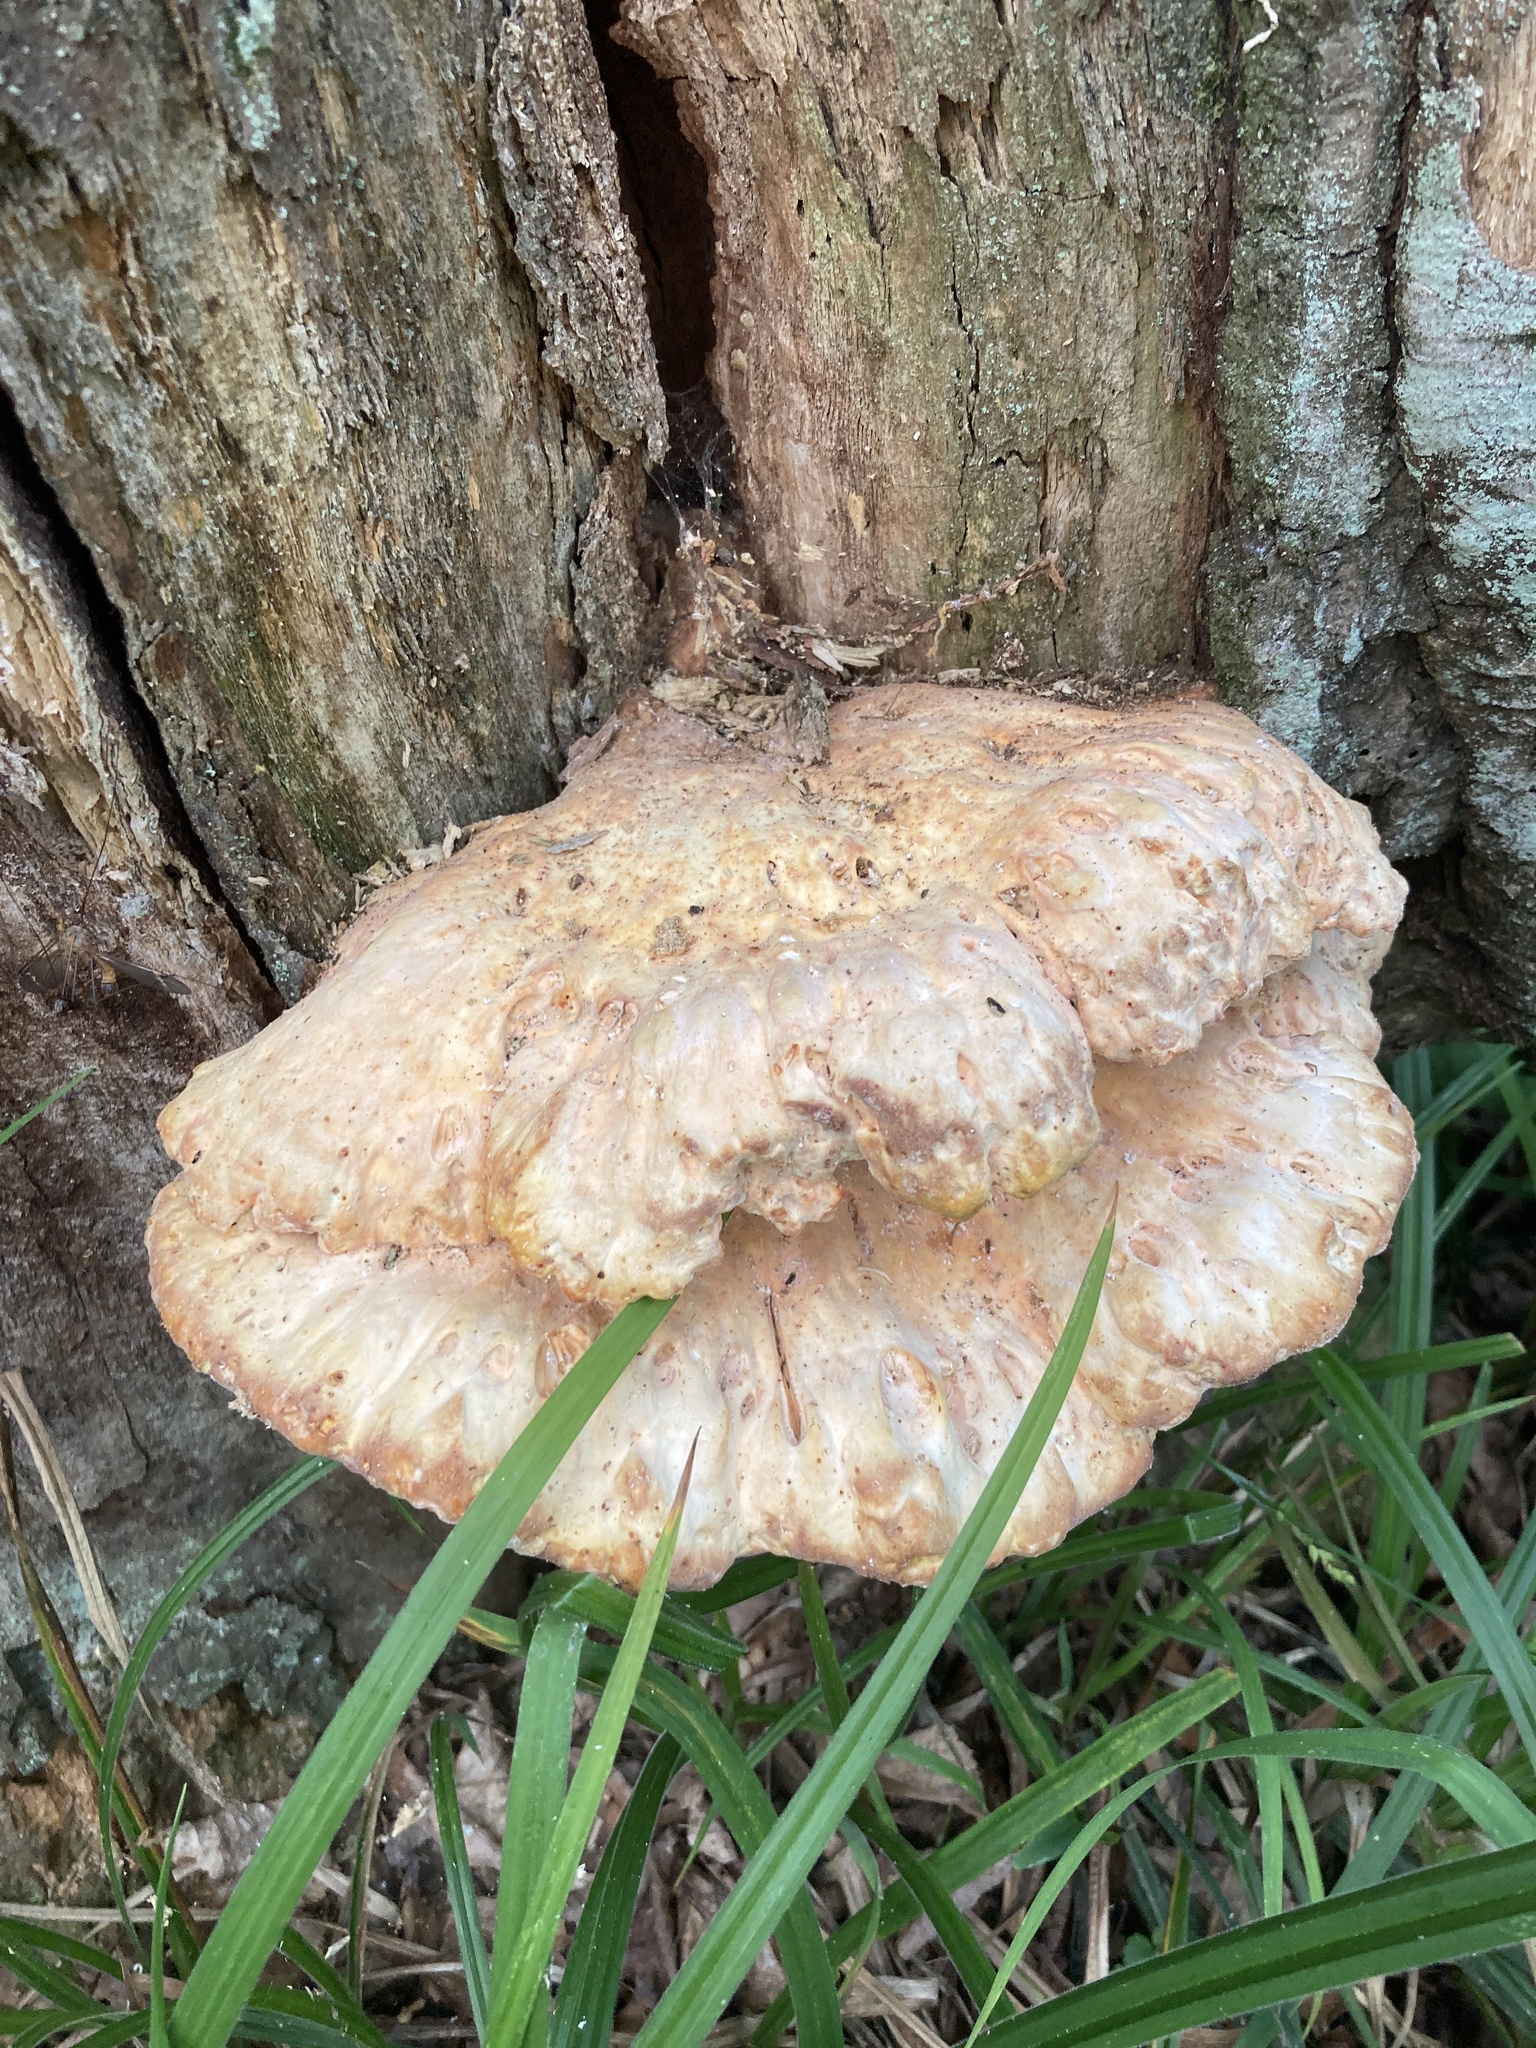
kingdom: Fungi
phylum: Basidiomycota
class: Agaricomycetes
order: Polyporales
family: Laetiporaceae
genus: Laetiporus
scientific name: Laetiporus sulphureus
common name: Chicken of the woods
